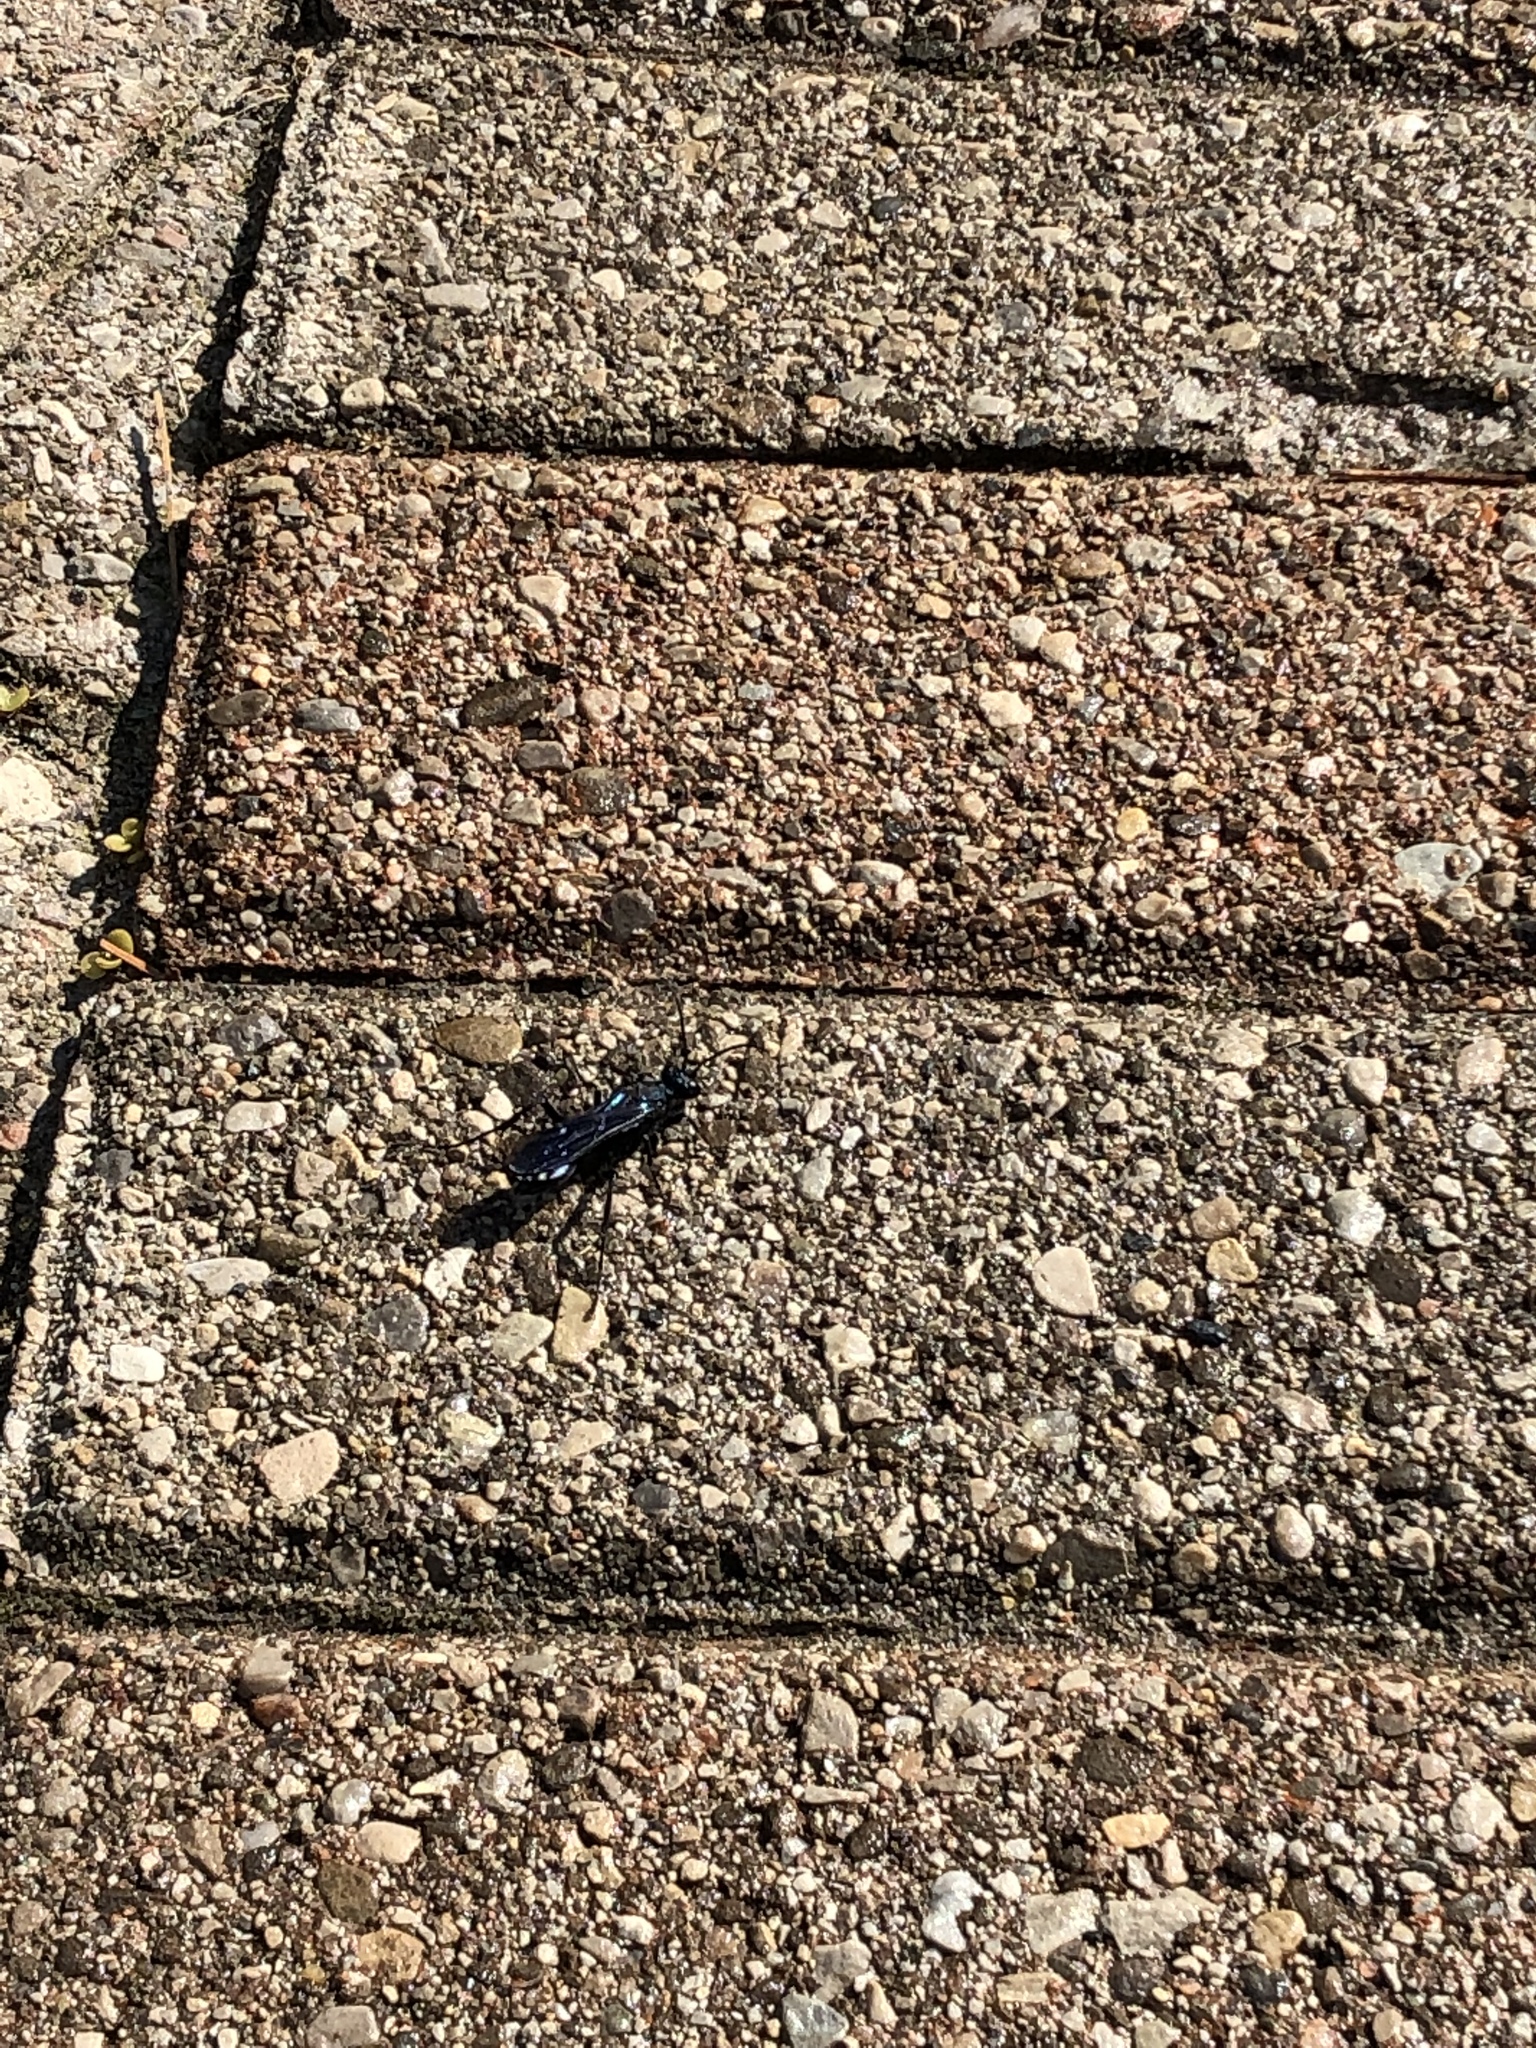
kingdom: Animalia
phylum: Arthropoda
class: Insecta
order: Hymenoptera
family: Sphecidae
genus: Chalybion
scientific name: Chalybion californicum
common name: Mud dauber
